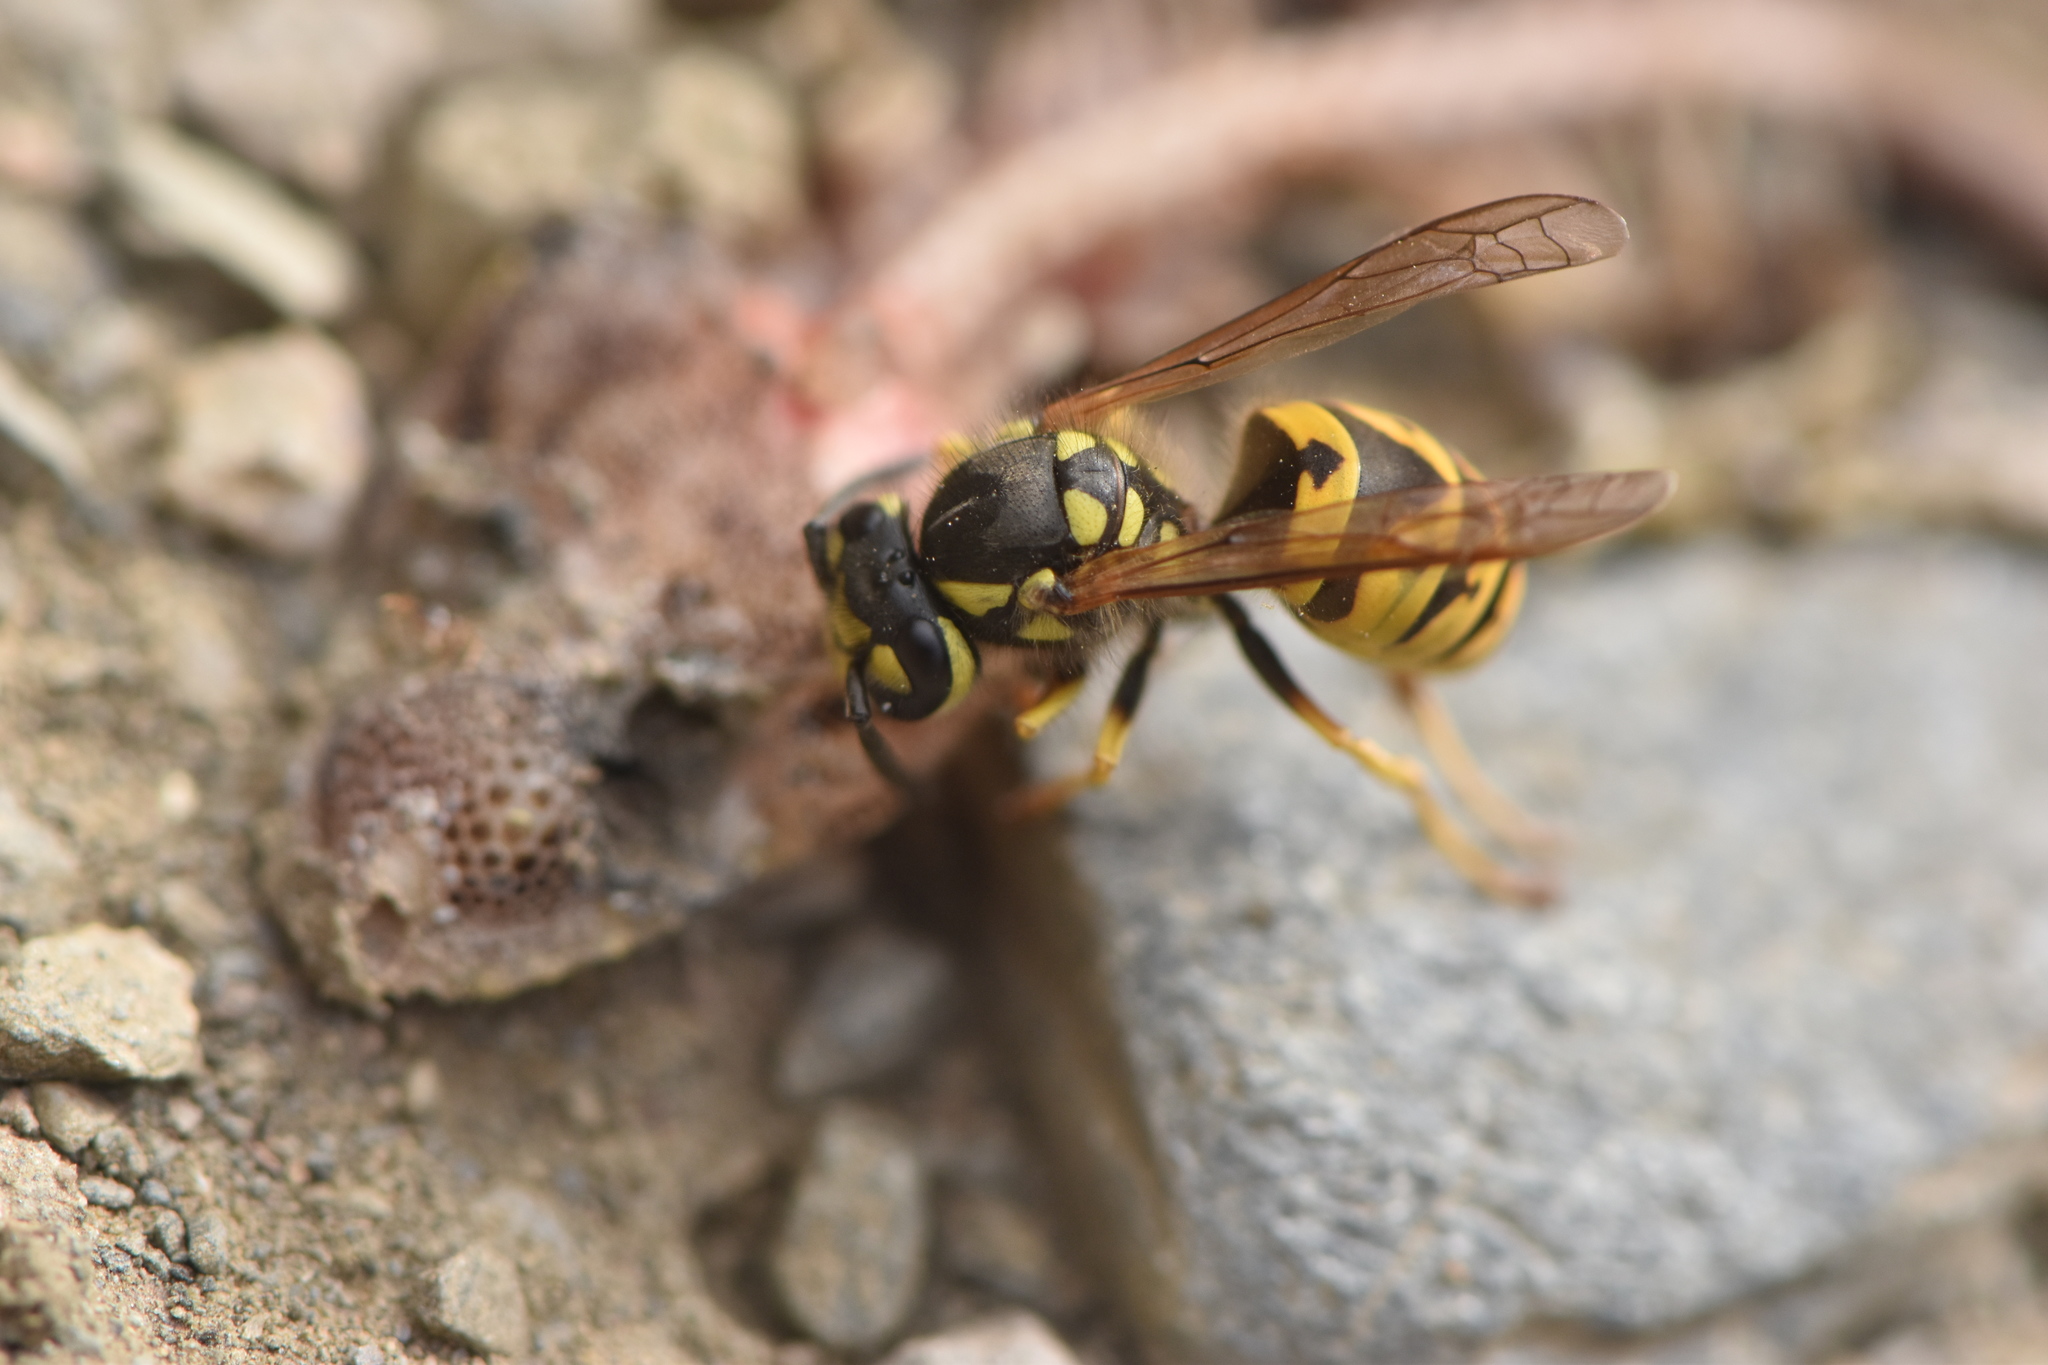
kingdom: Animalia
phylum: Arthropoda
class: Insecta
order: Hymenoptera
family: Vespidae
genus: Vespula
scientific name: Vespula germanica
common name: German wasp
